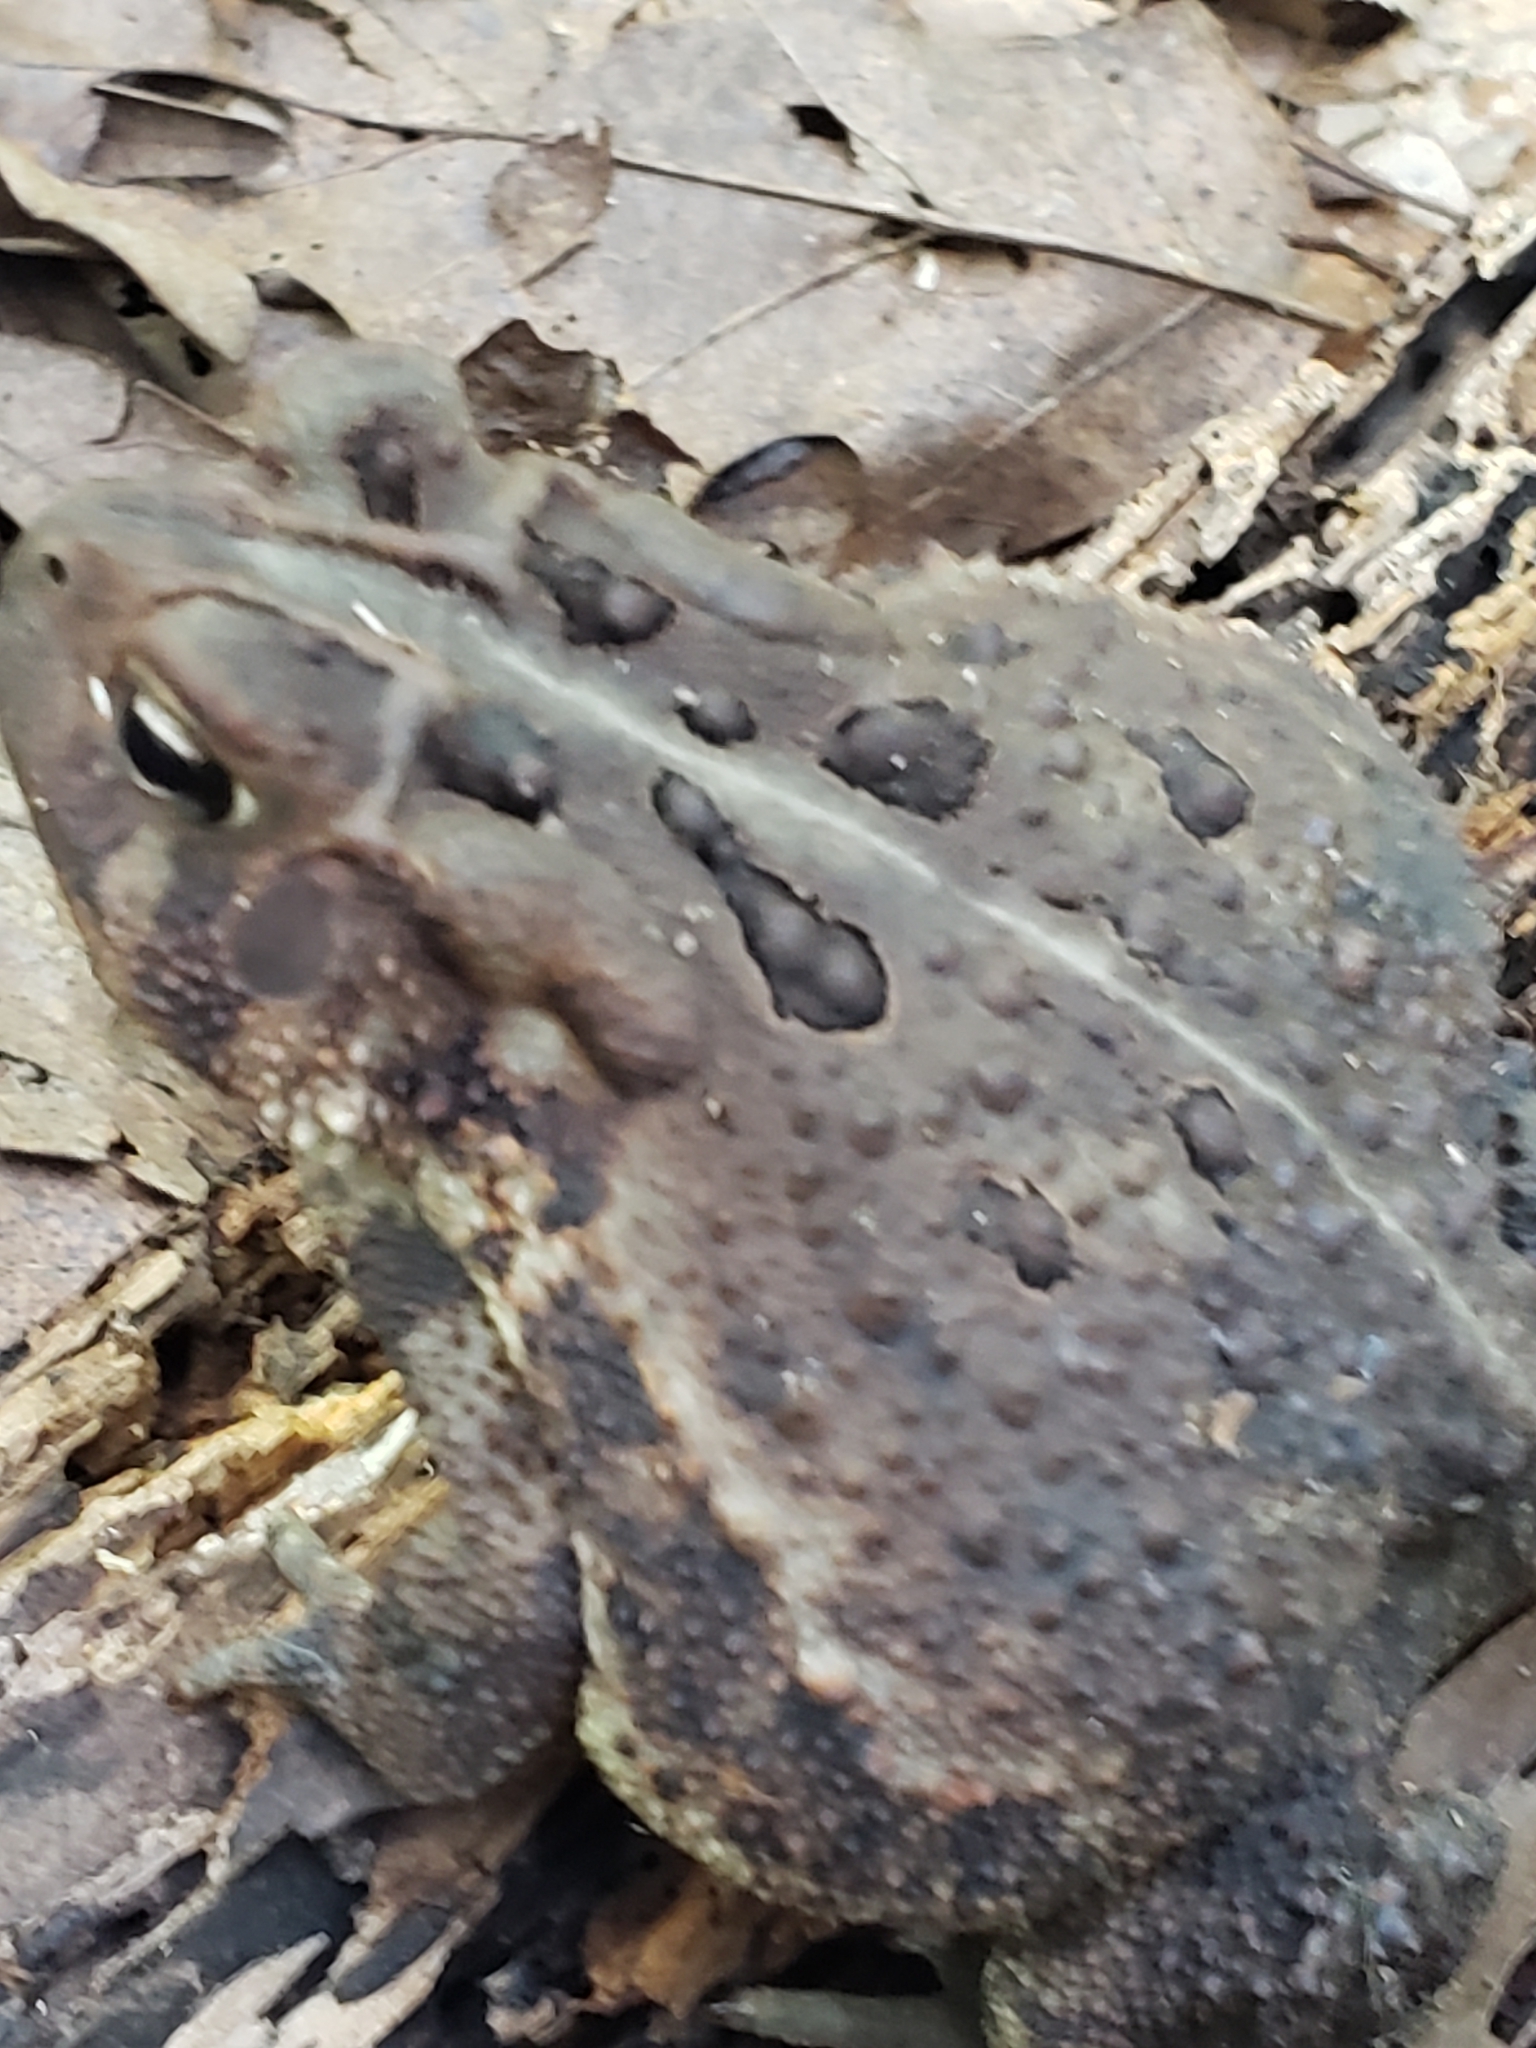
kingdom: Animalia
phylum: Chordata
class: Amphibia
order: Anura
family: Bufonidae
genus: Anaxyrus
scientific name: Anaxyrus americanus
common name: American toad
